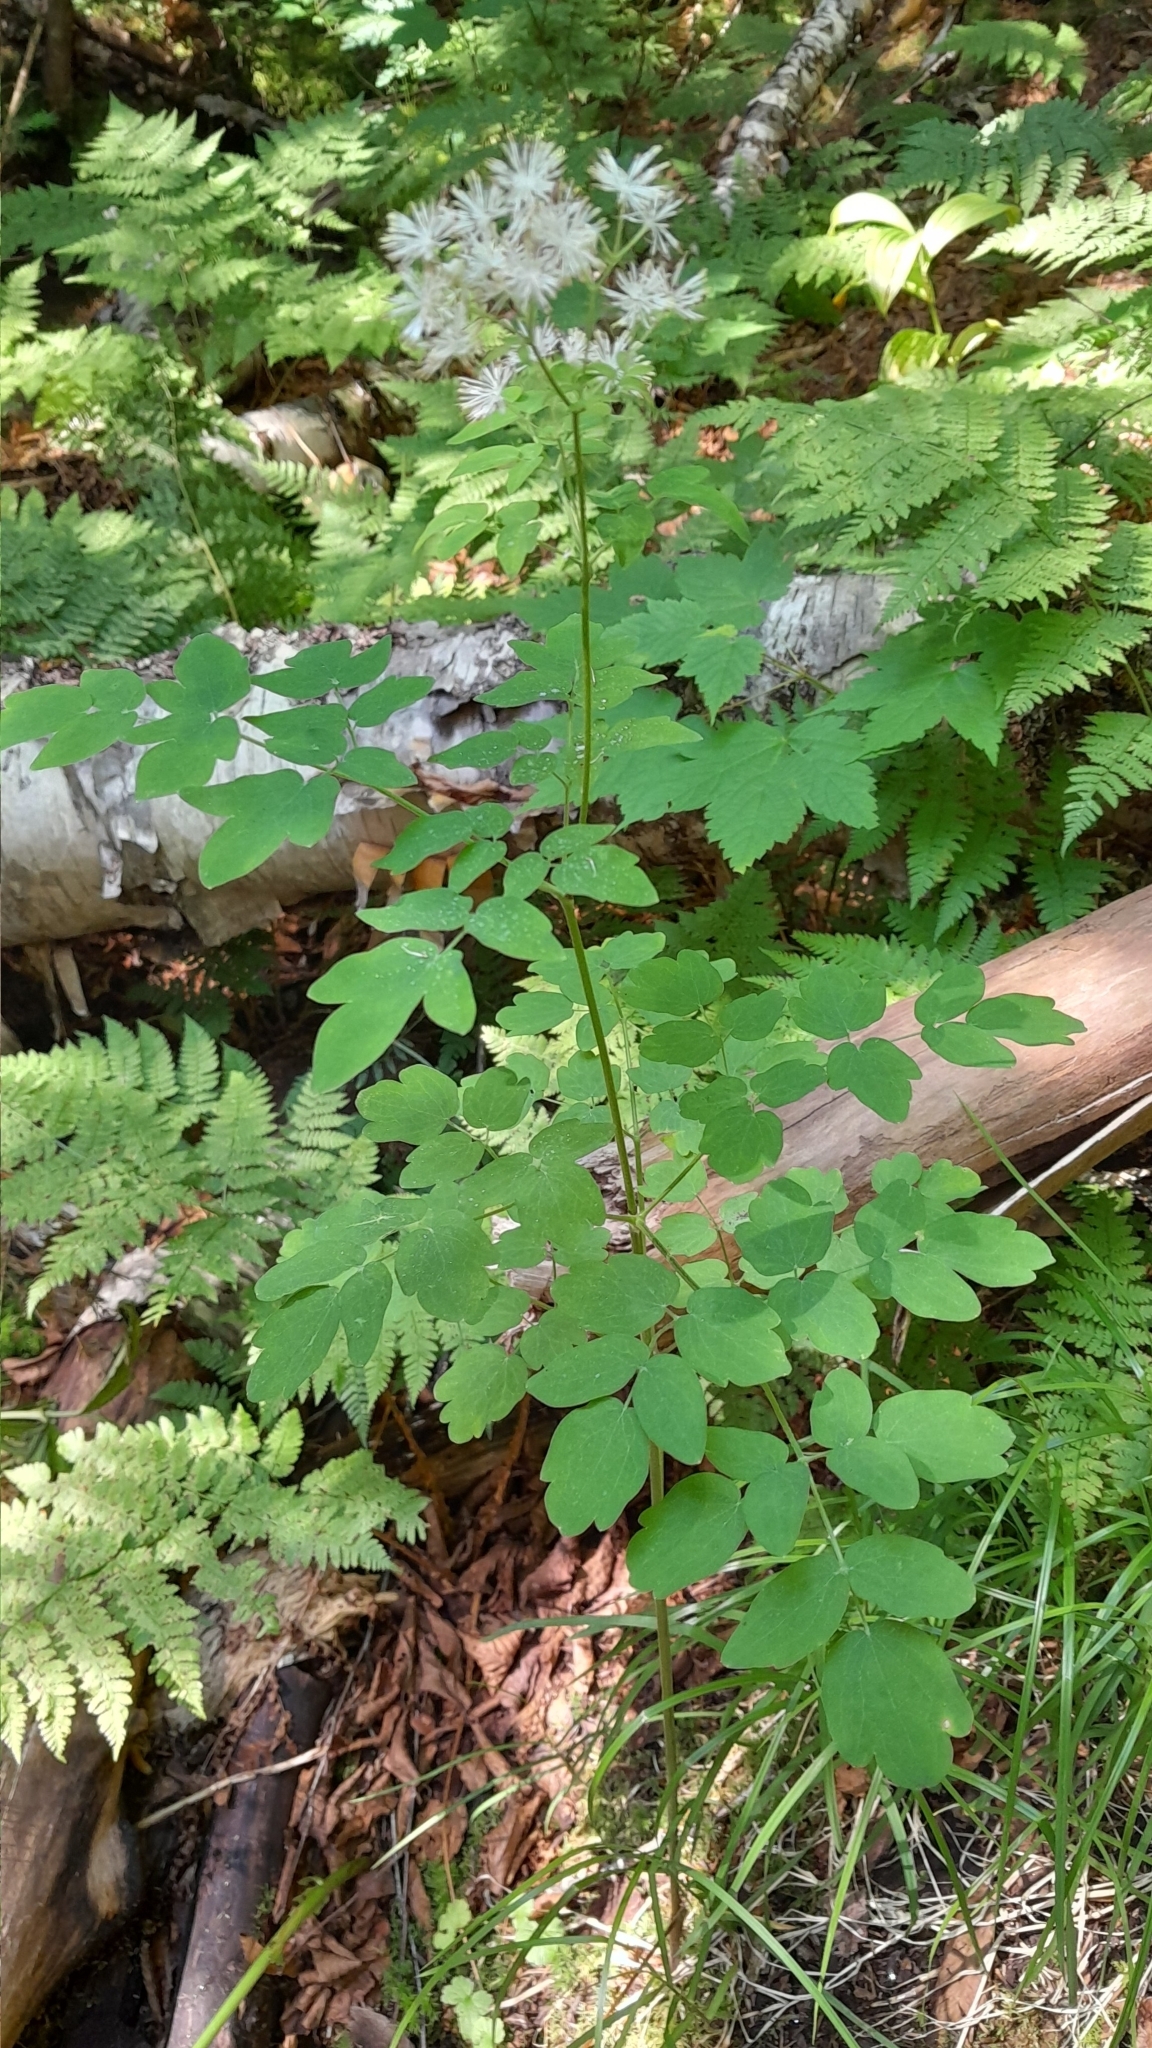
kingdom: Plantae
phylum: Tracheophyta
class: Magnoliopsida
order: Ranunculales
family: Ranunculaceae
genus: Thalictrum
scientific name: Thalictrum pubescens
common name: King-of-the-meadow
